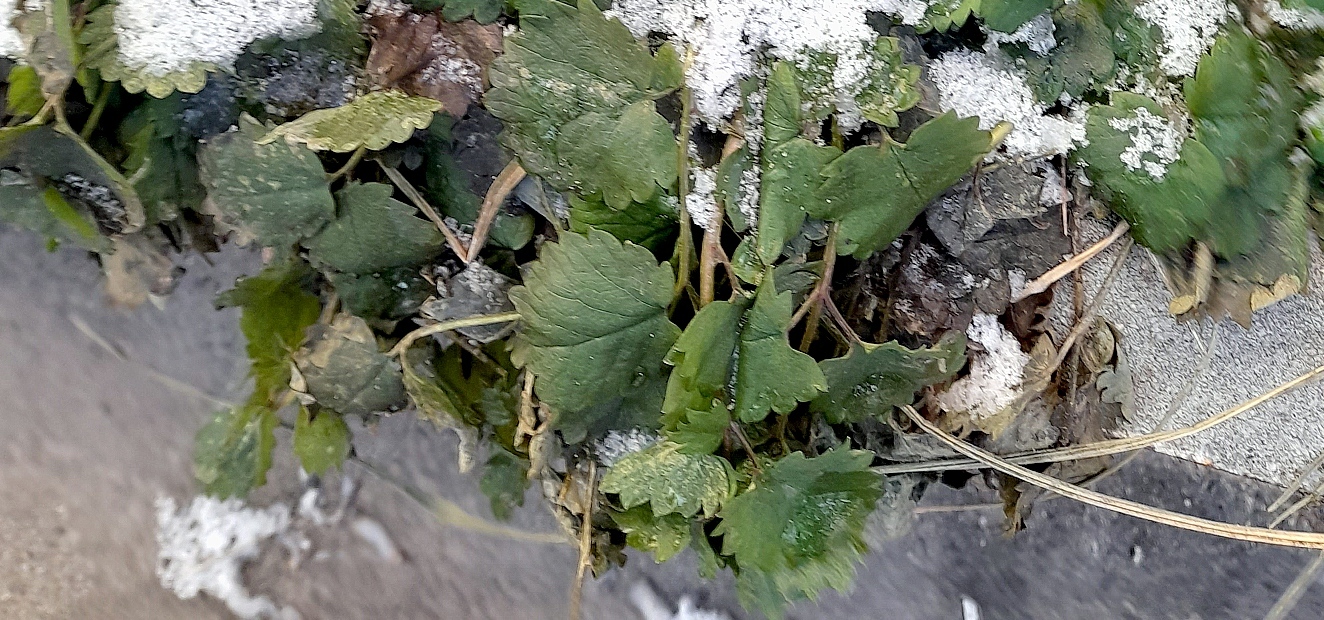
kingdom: Plantae
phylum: Tracheophyta
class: Magnoliopsida
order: Lamiales
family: Lamiaceae
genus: Glechoma
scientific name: Glechoma hederacea
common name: Ground ivy
